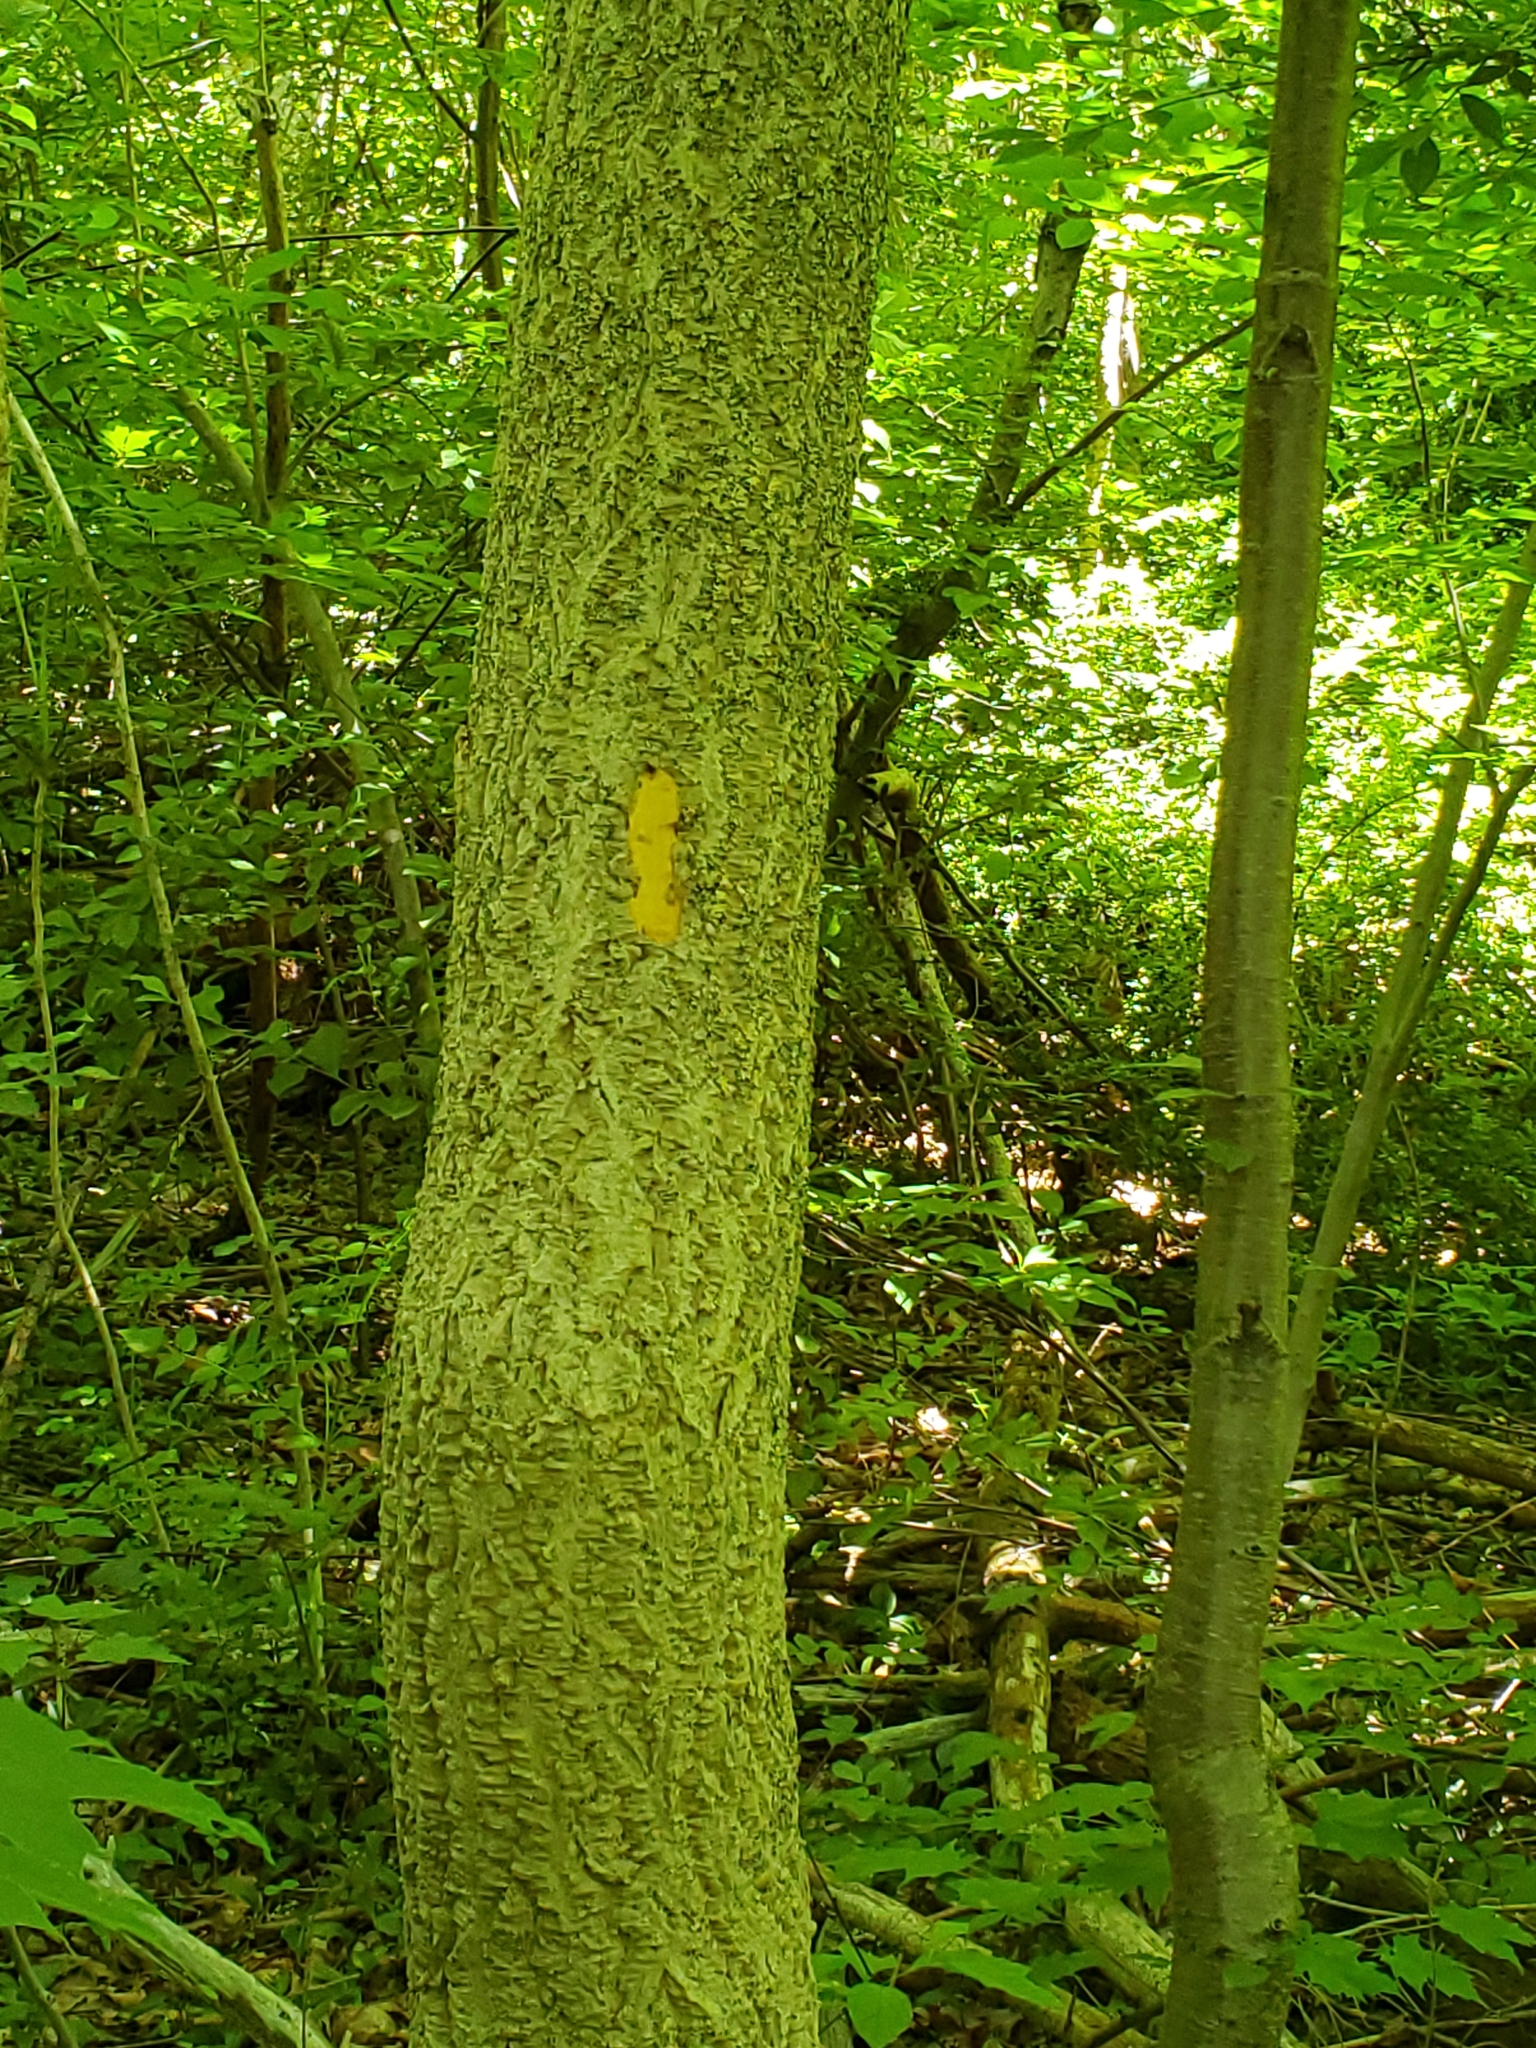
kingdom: Plantae
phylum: Tracheophyta
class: Magnoliopsida
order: Sapindales
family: Rutaceae
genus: Phellodendron
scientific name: Phellodendron amurense
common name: Amur corktree
